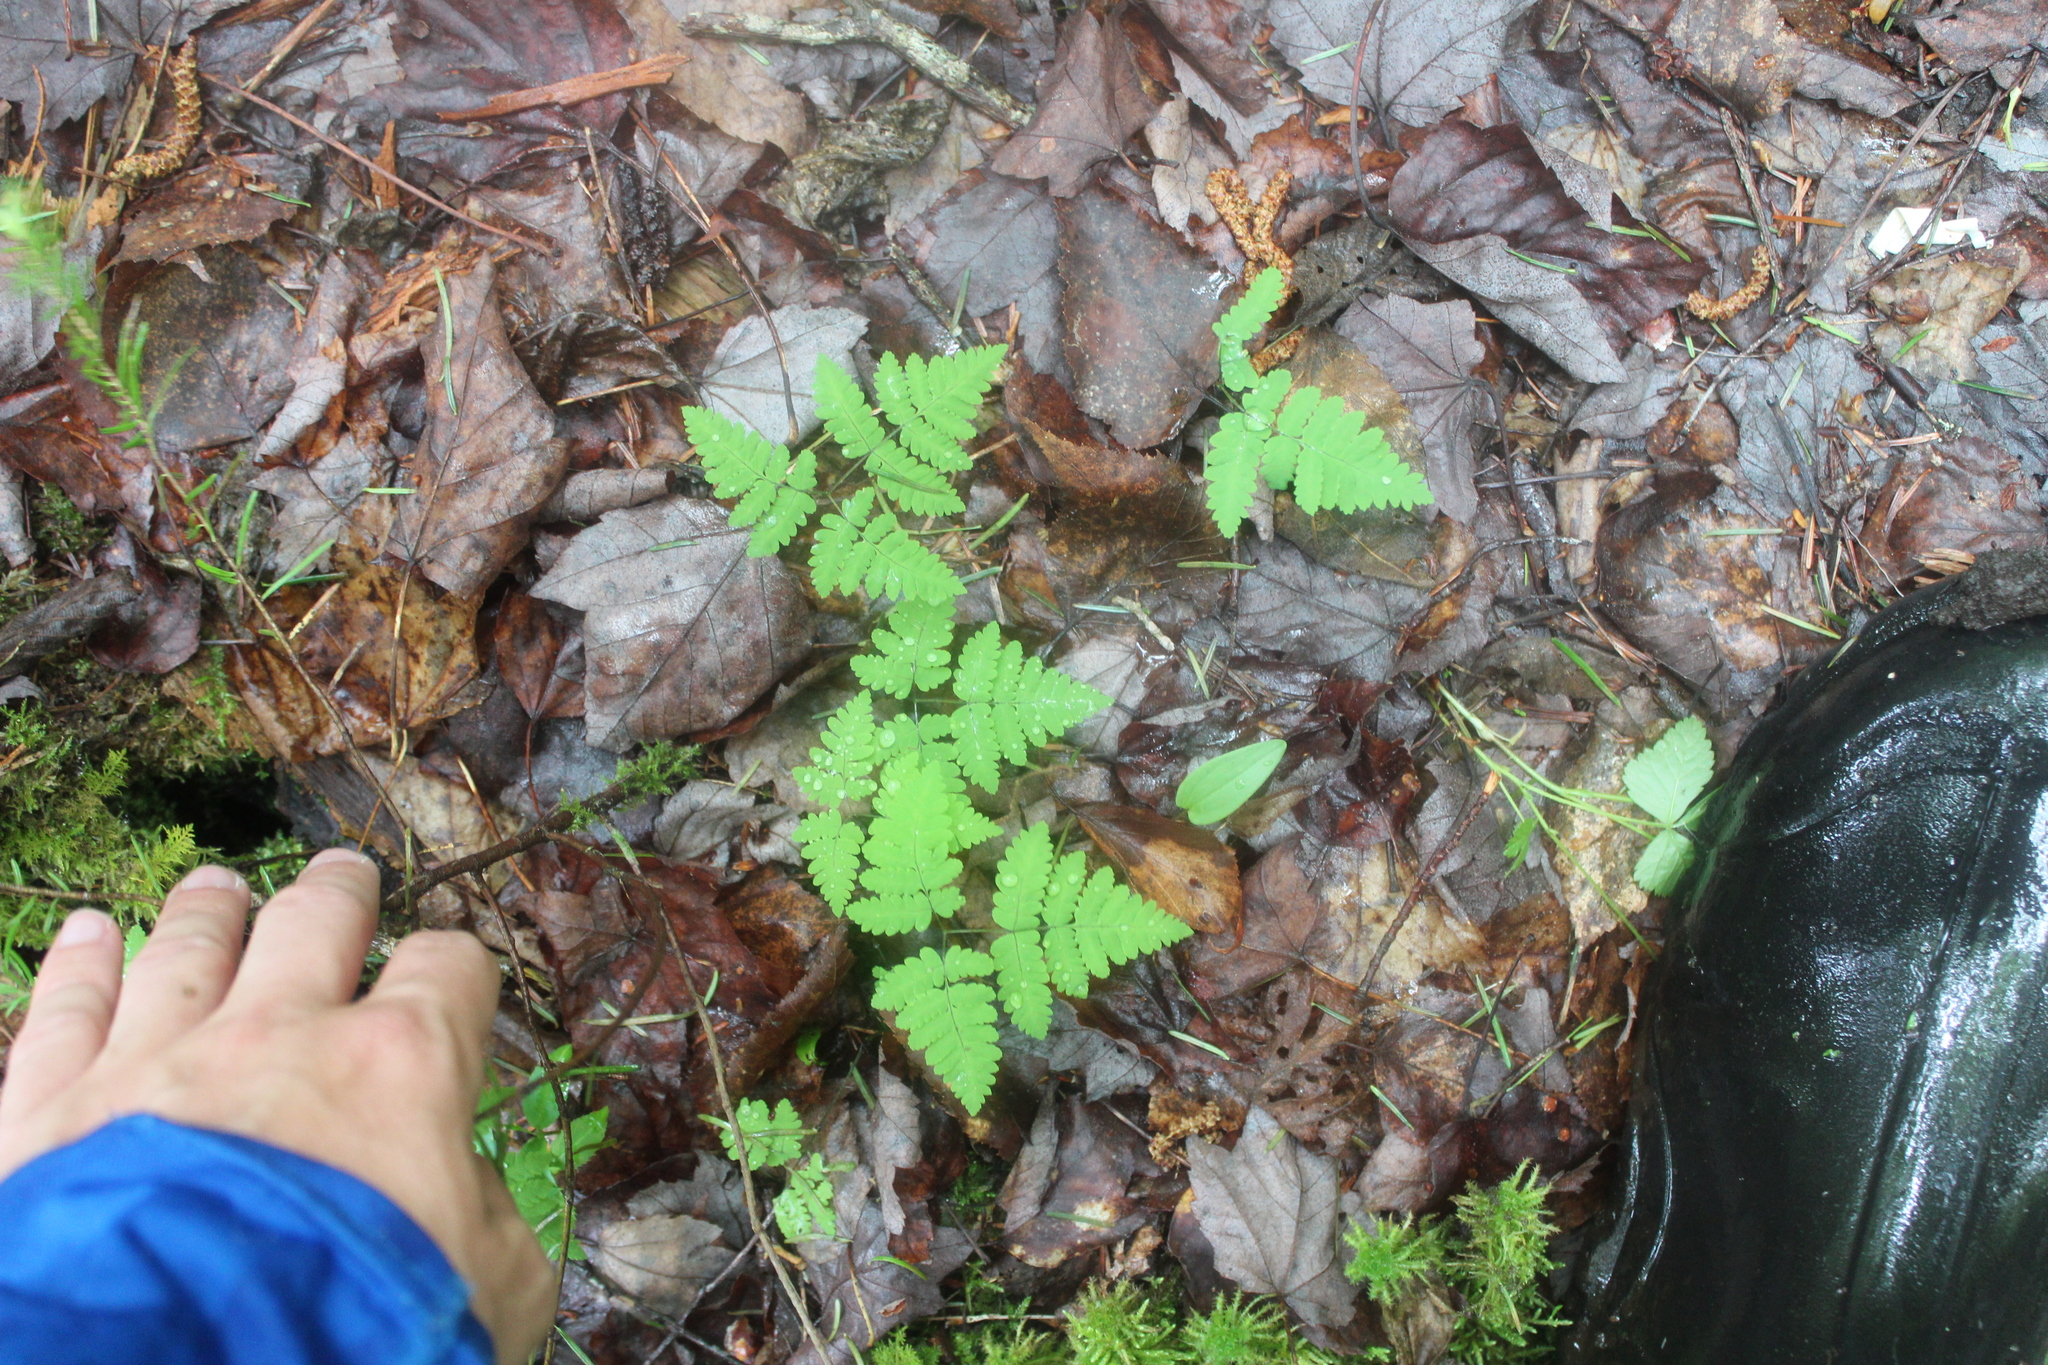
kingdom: Plantae
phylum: Tracheophyta
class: Polypodiopsida
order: Polypodiales
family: Cystopteridaceae
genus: Gymnocarpium
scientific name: Gymnocarpium dryopteris
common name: Oak fern
